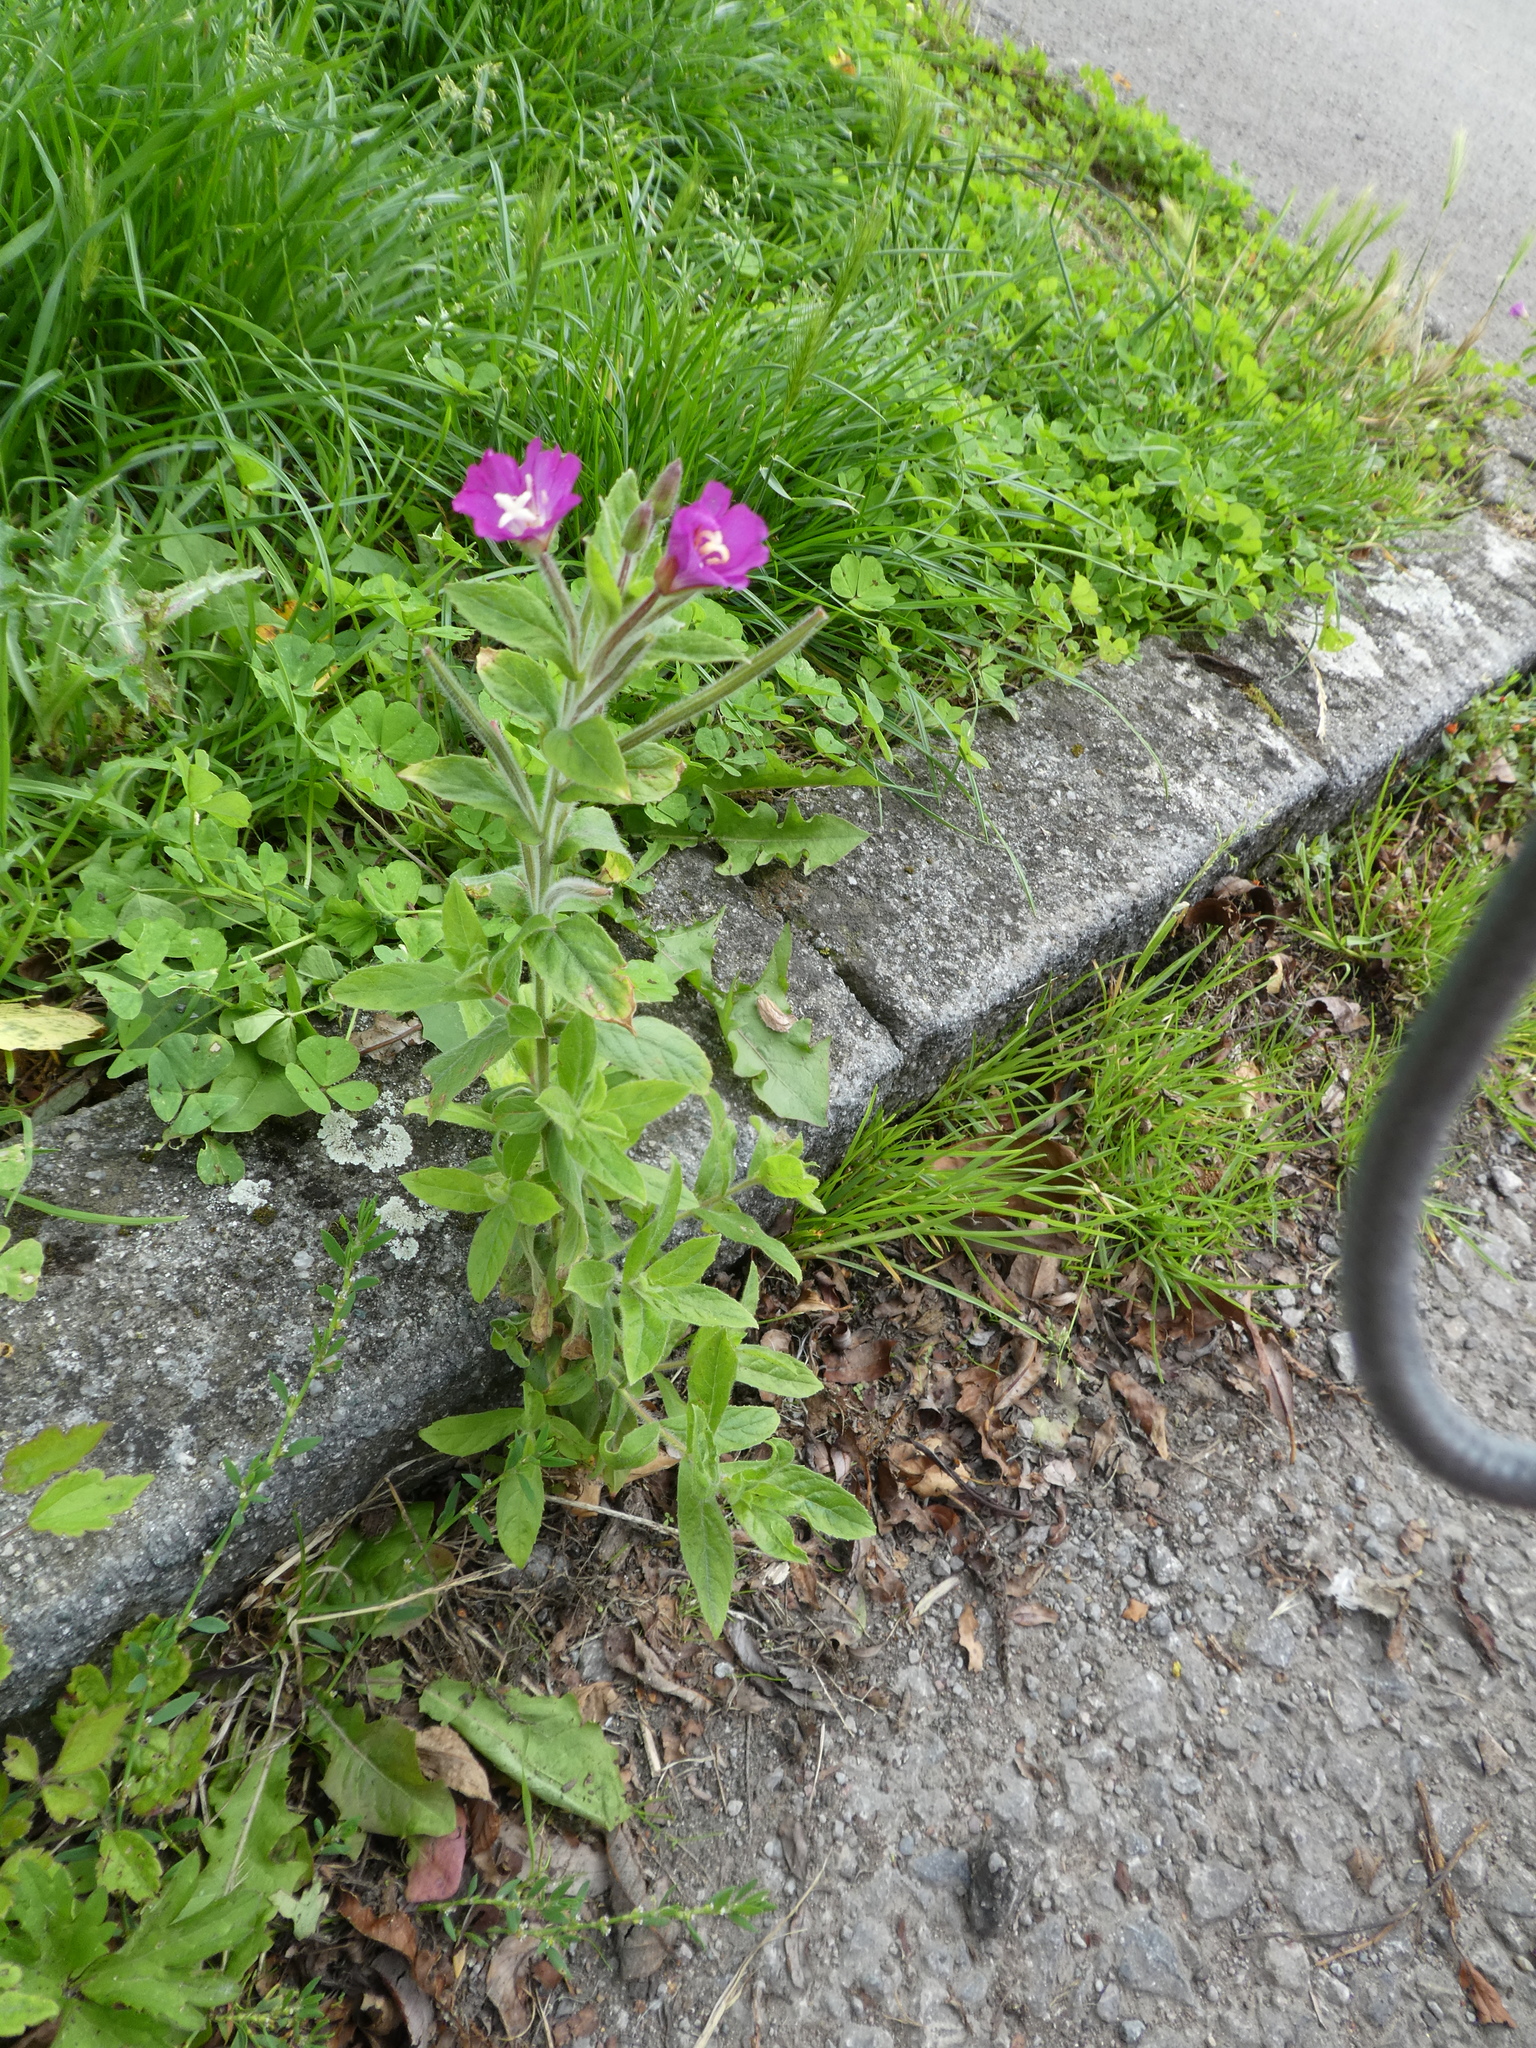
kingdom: Plantae
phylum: Tracheophyta
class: Magnoliopsida
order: Myrtales
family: Onagraceae
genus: Epilobium
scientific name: Epilobium hirsutum
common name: Great willowherb
